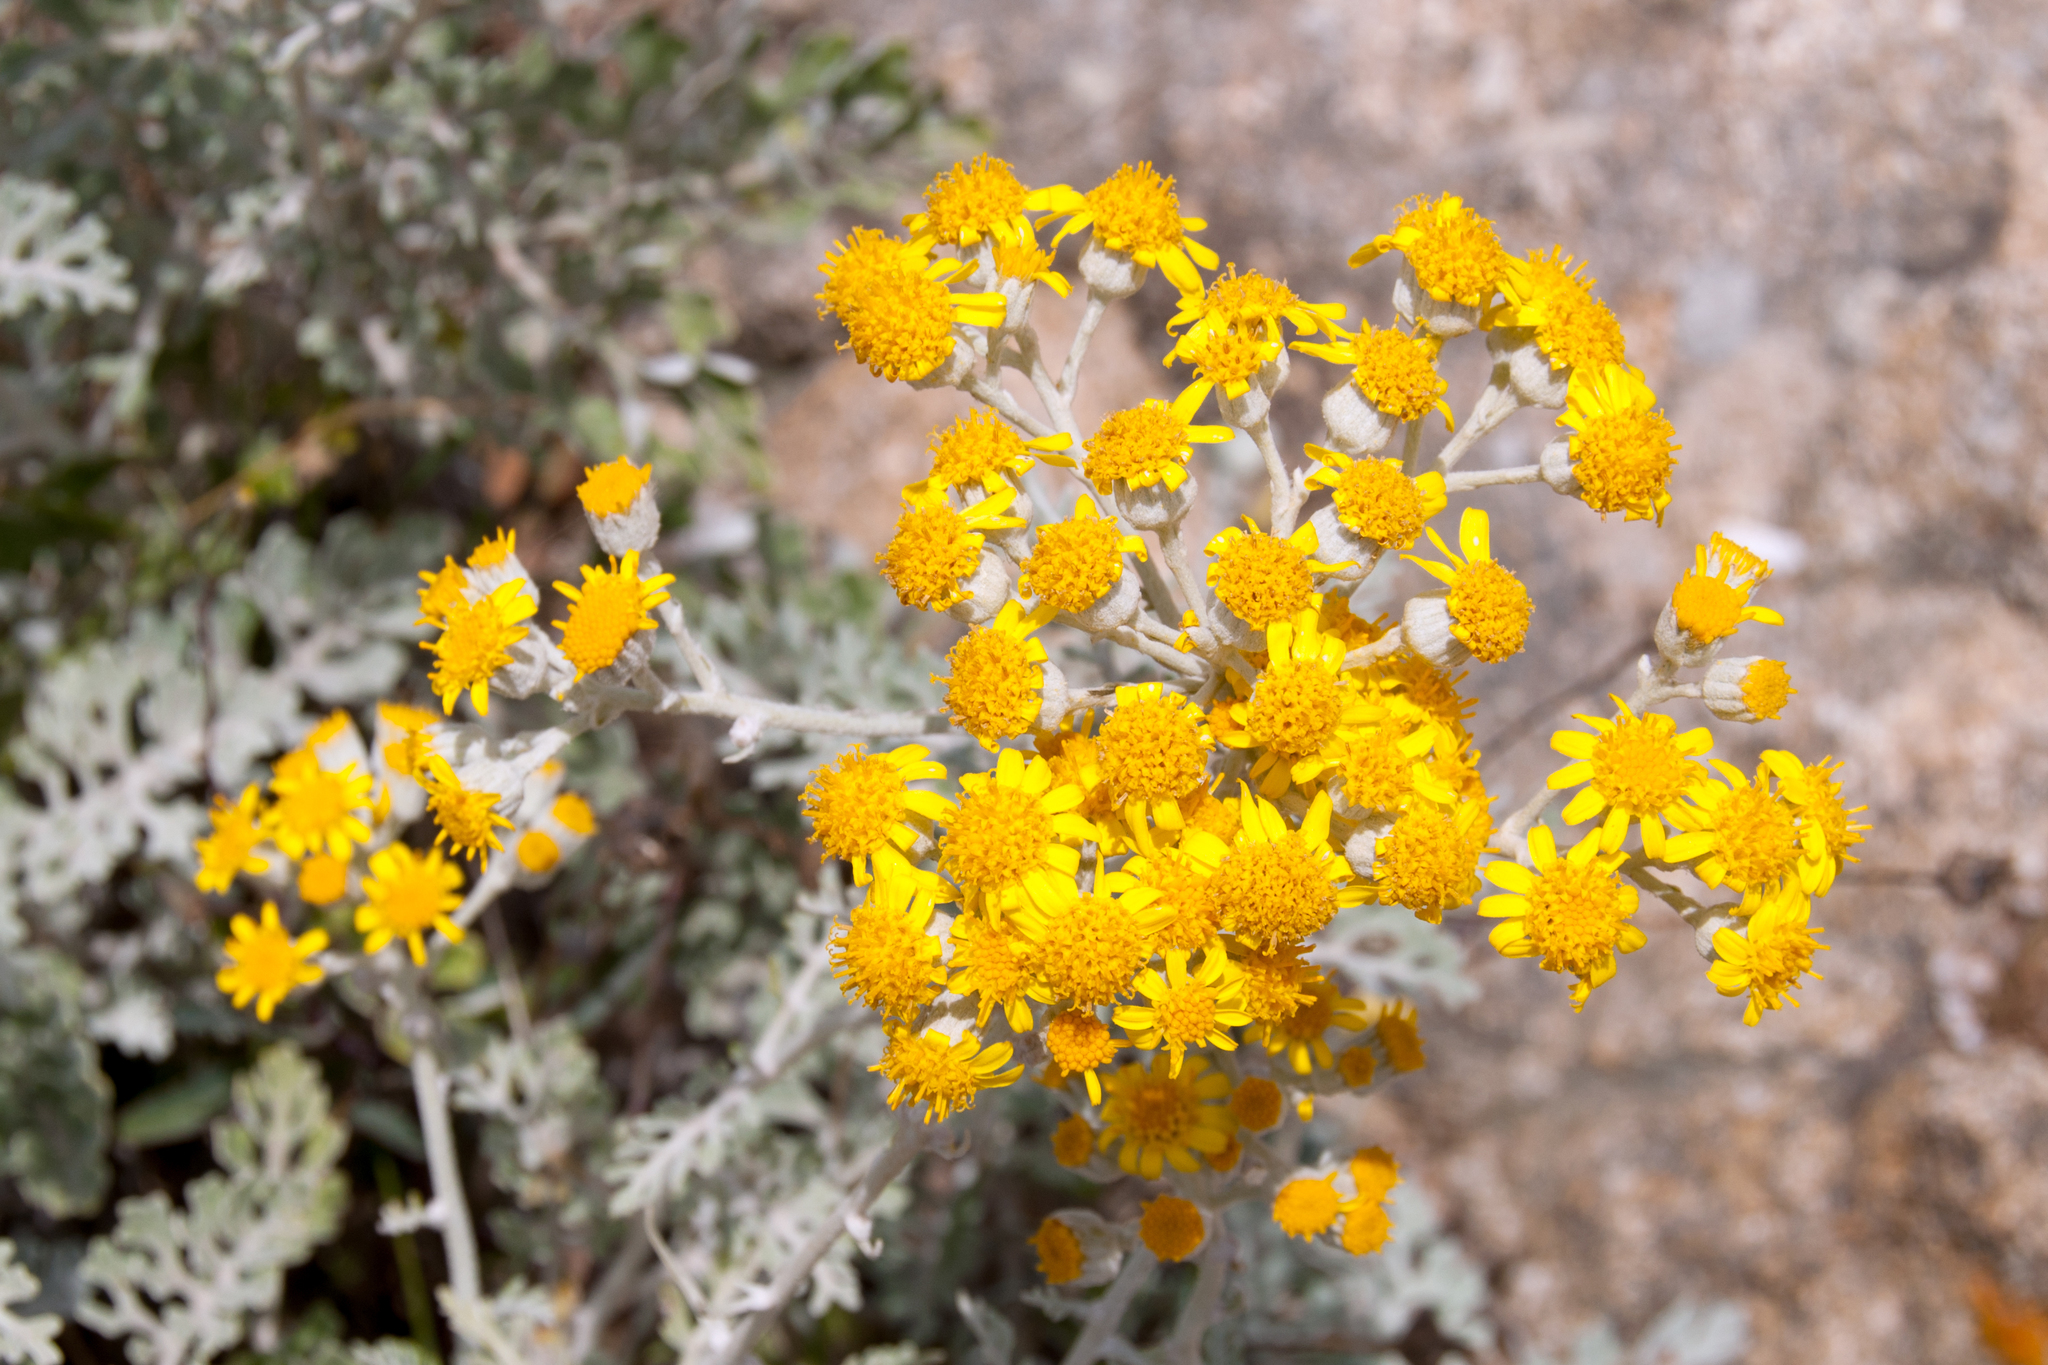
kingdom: Plantae
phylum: Tracheophyta
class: Magnoliopsida
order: Asterales
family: Asteraceae
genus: Jacobaea
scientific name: Jacobaea maritima
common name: Silver ragwort
